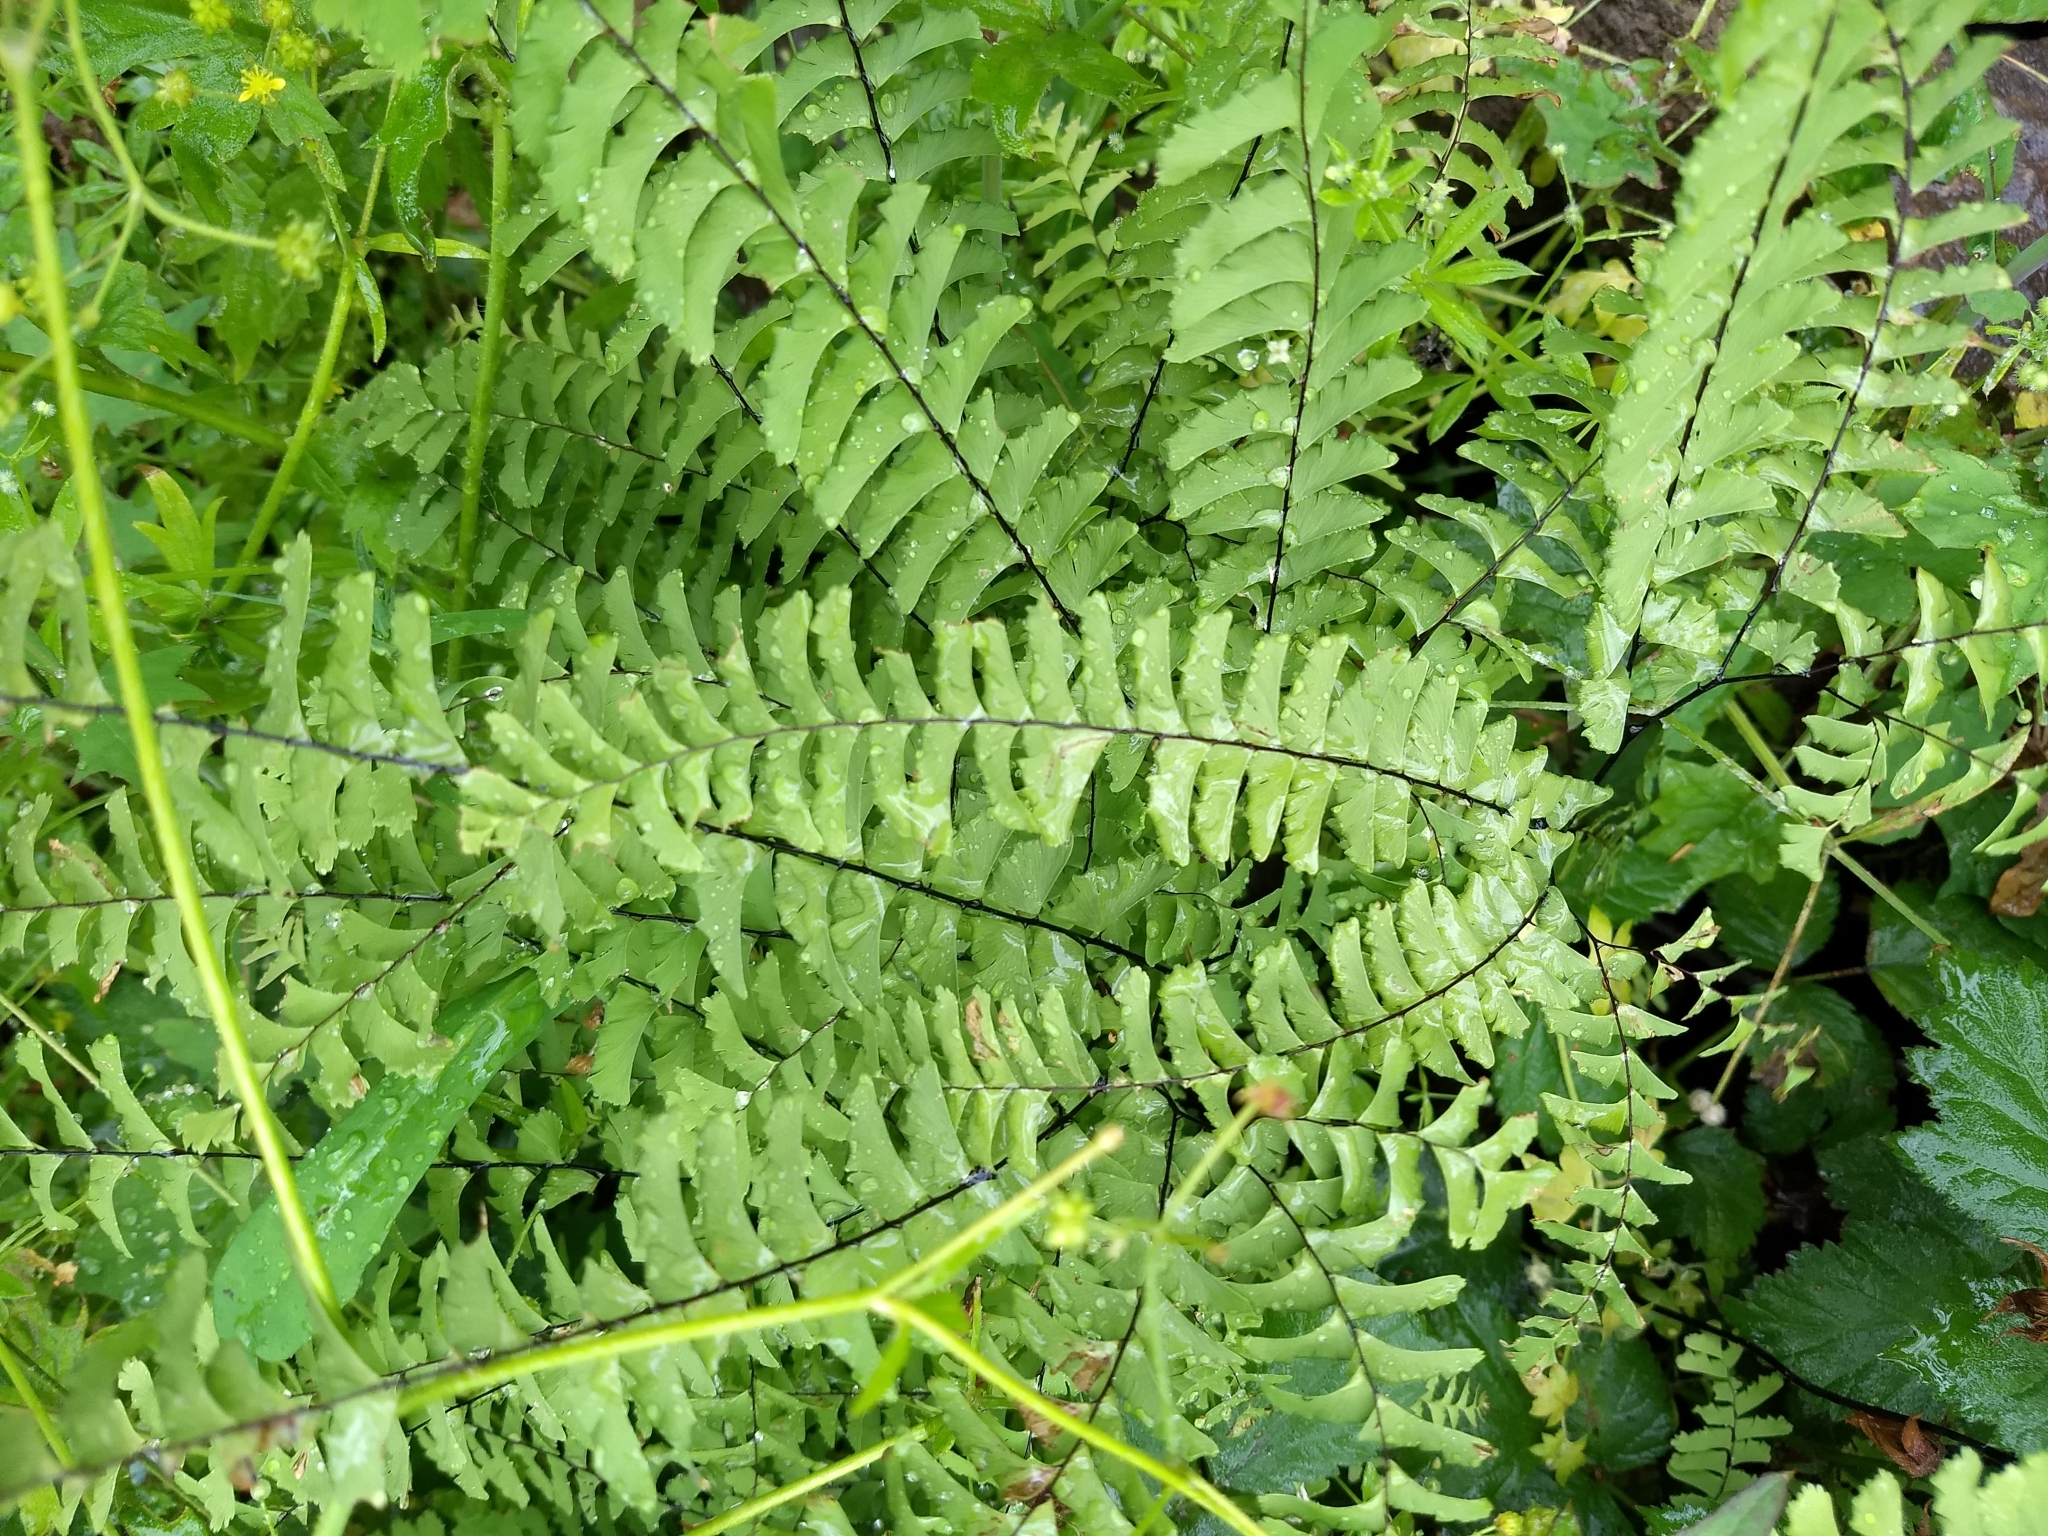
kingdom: Plantae
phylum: Tracheophyta
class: Polypodiopsida
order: Polypodiales
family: Pteridaceae
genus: Adiantum
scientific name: Adiantum aleuticum
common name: Aleutian maidenhair fern
